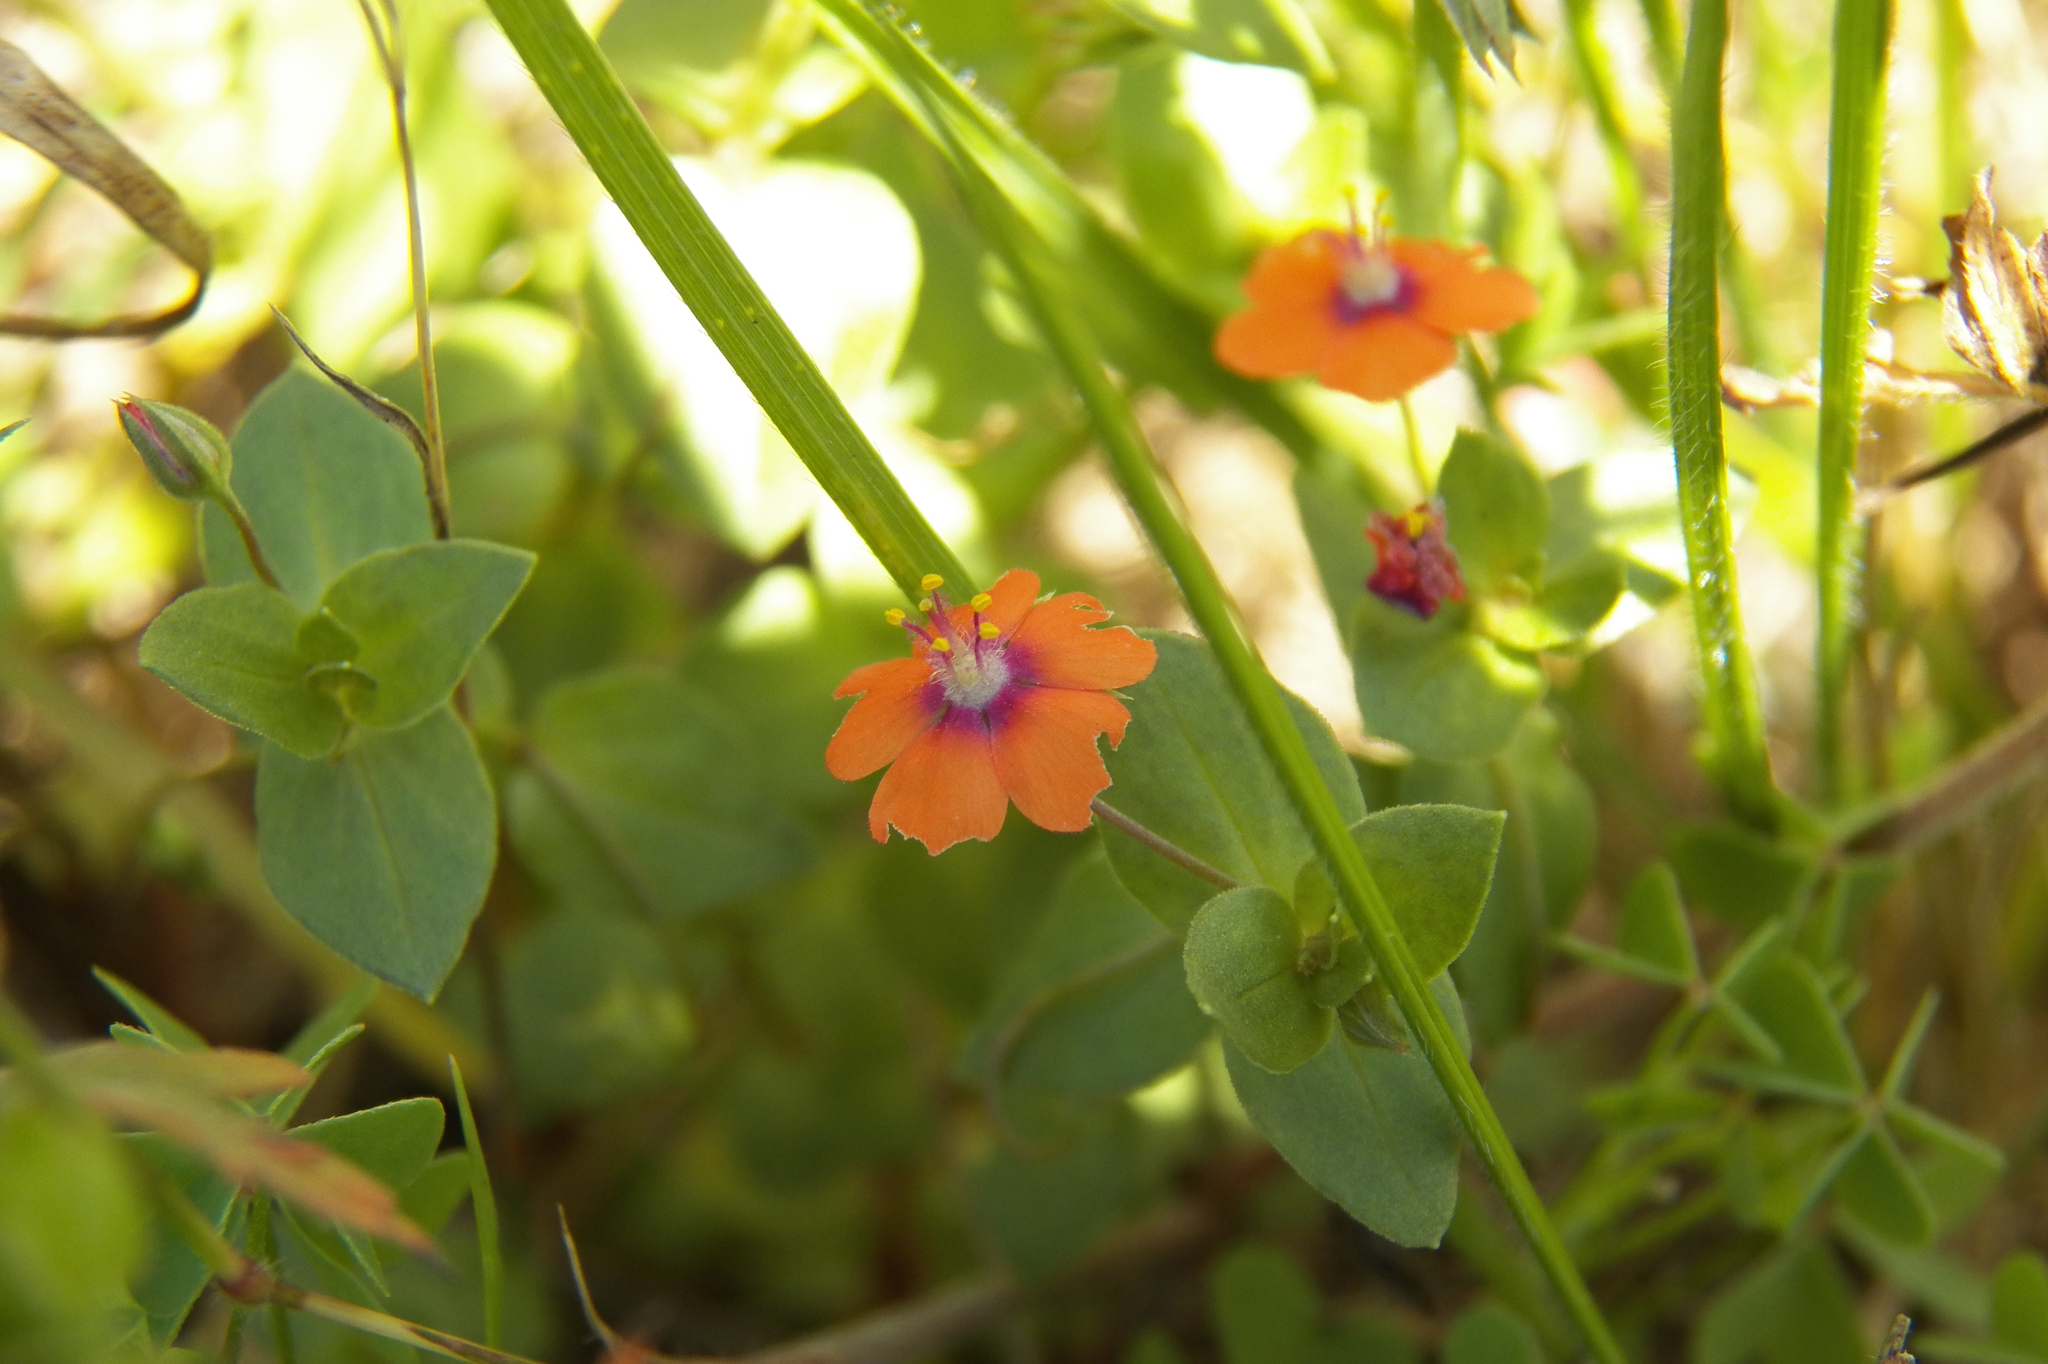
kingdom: Plantae
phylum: Tracheophyta
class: Magnoliopsida
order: Ericales
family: Primulaceae
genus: Lysimachia
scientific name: Lysimachia arvensis
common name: Scarlet pimpernel
